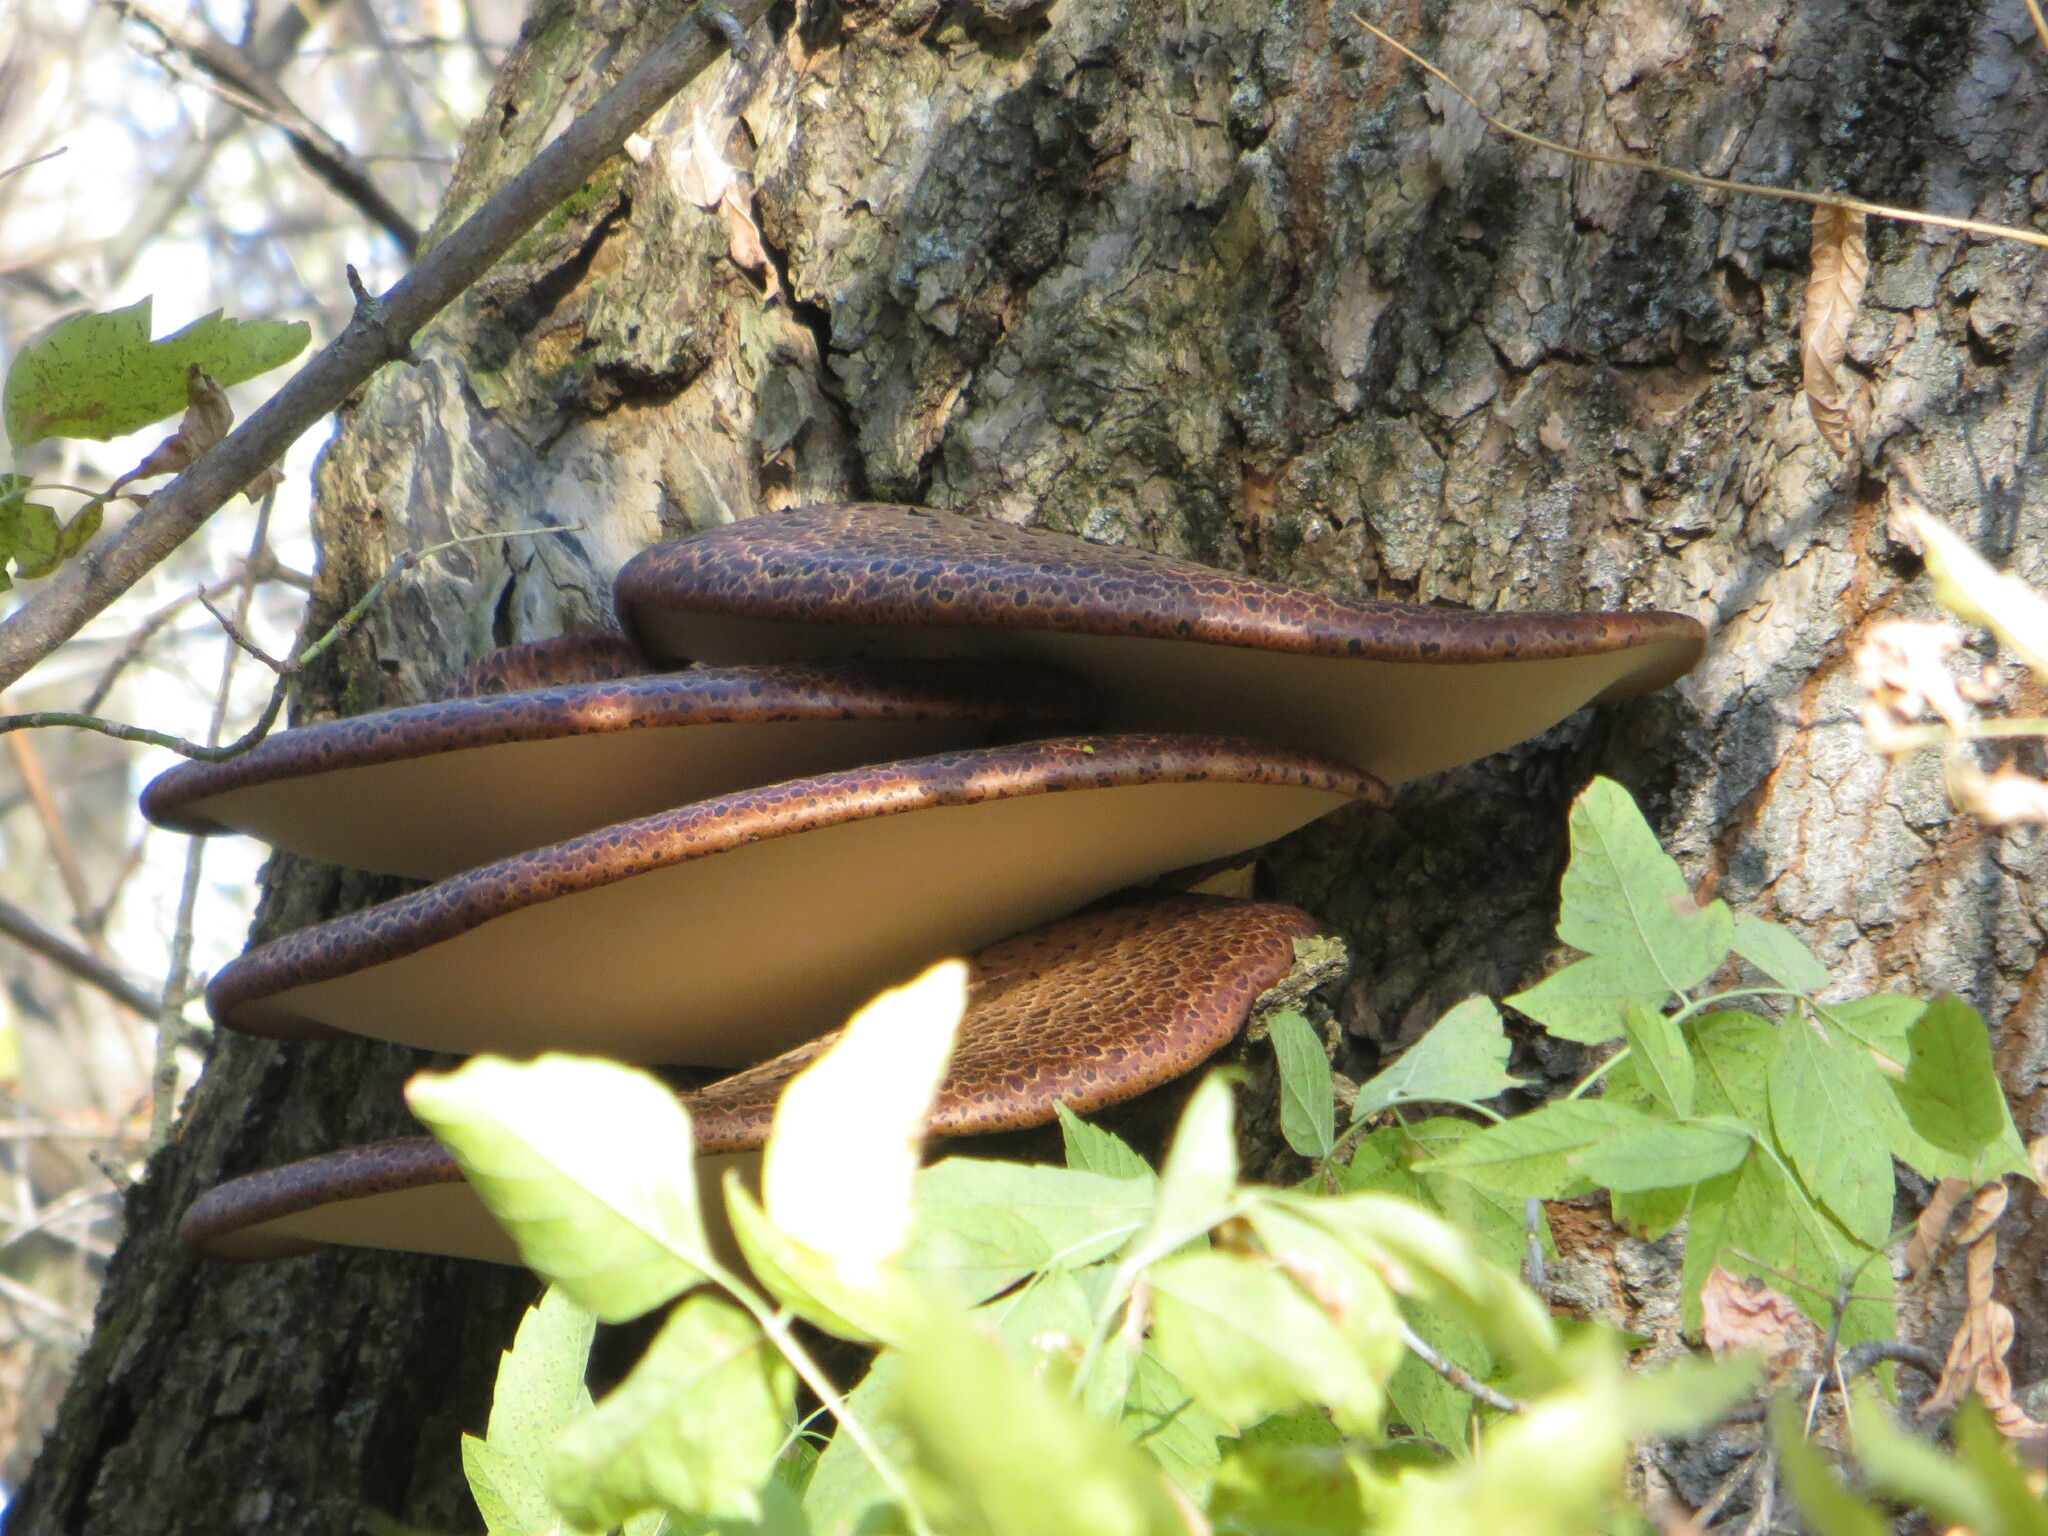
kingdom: Fungi
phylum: Basidiomycota
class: Agaricomycetes
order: Polyporales
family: Polyporaceae
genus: Cerioporus
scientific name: Cerioporus squamosus
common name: Dryad's saddle
